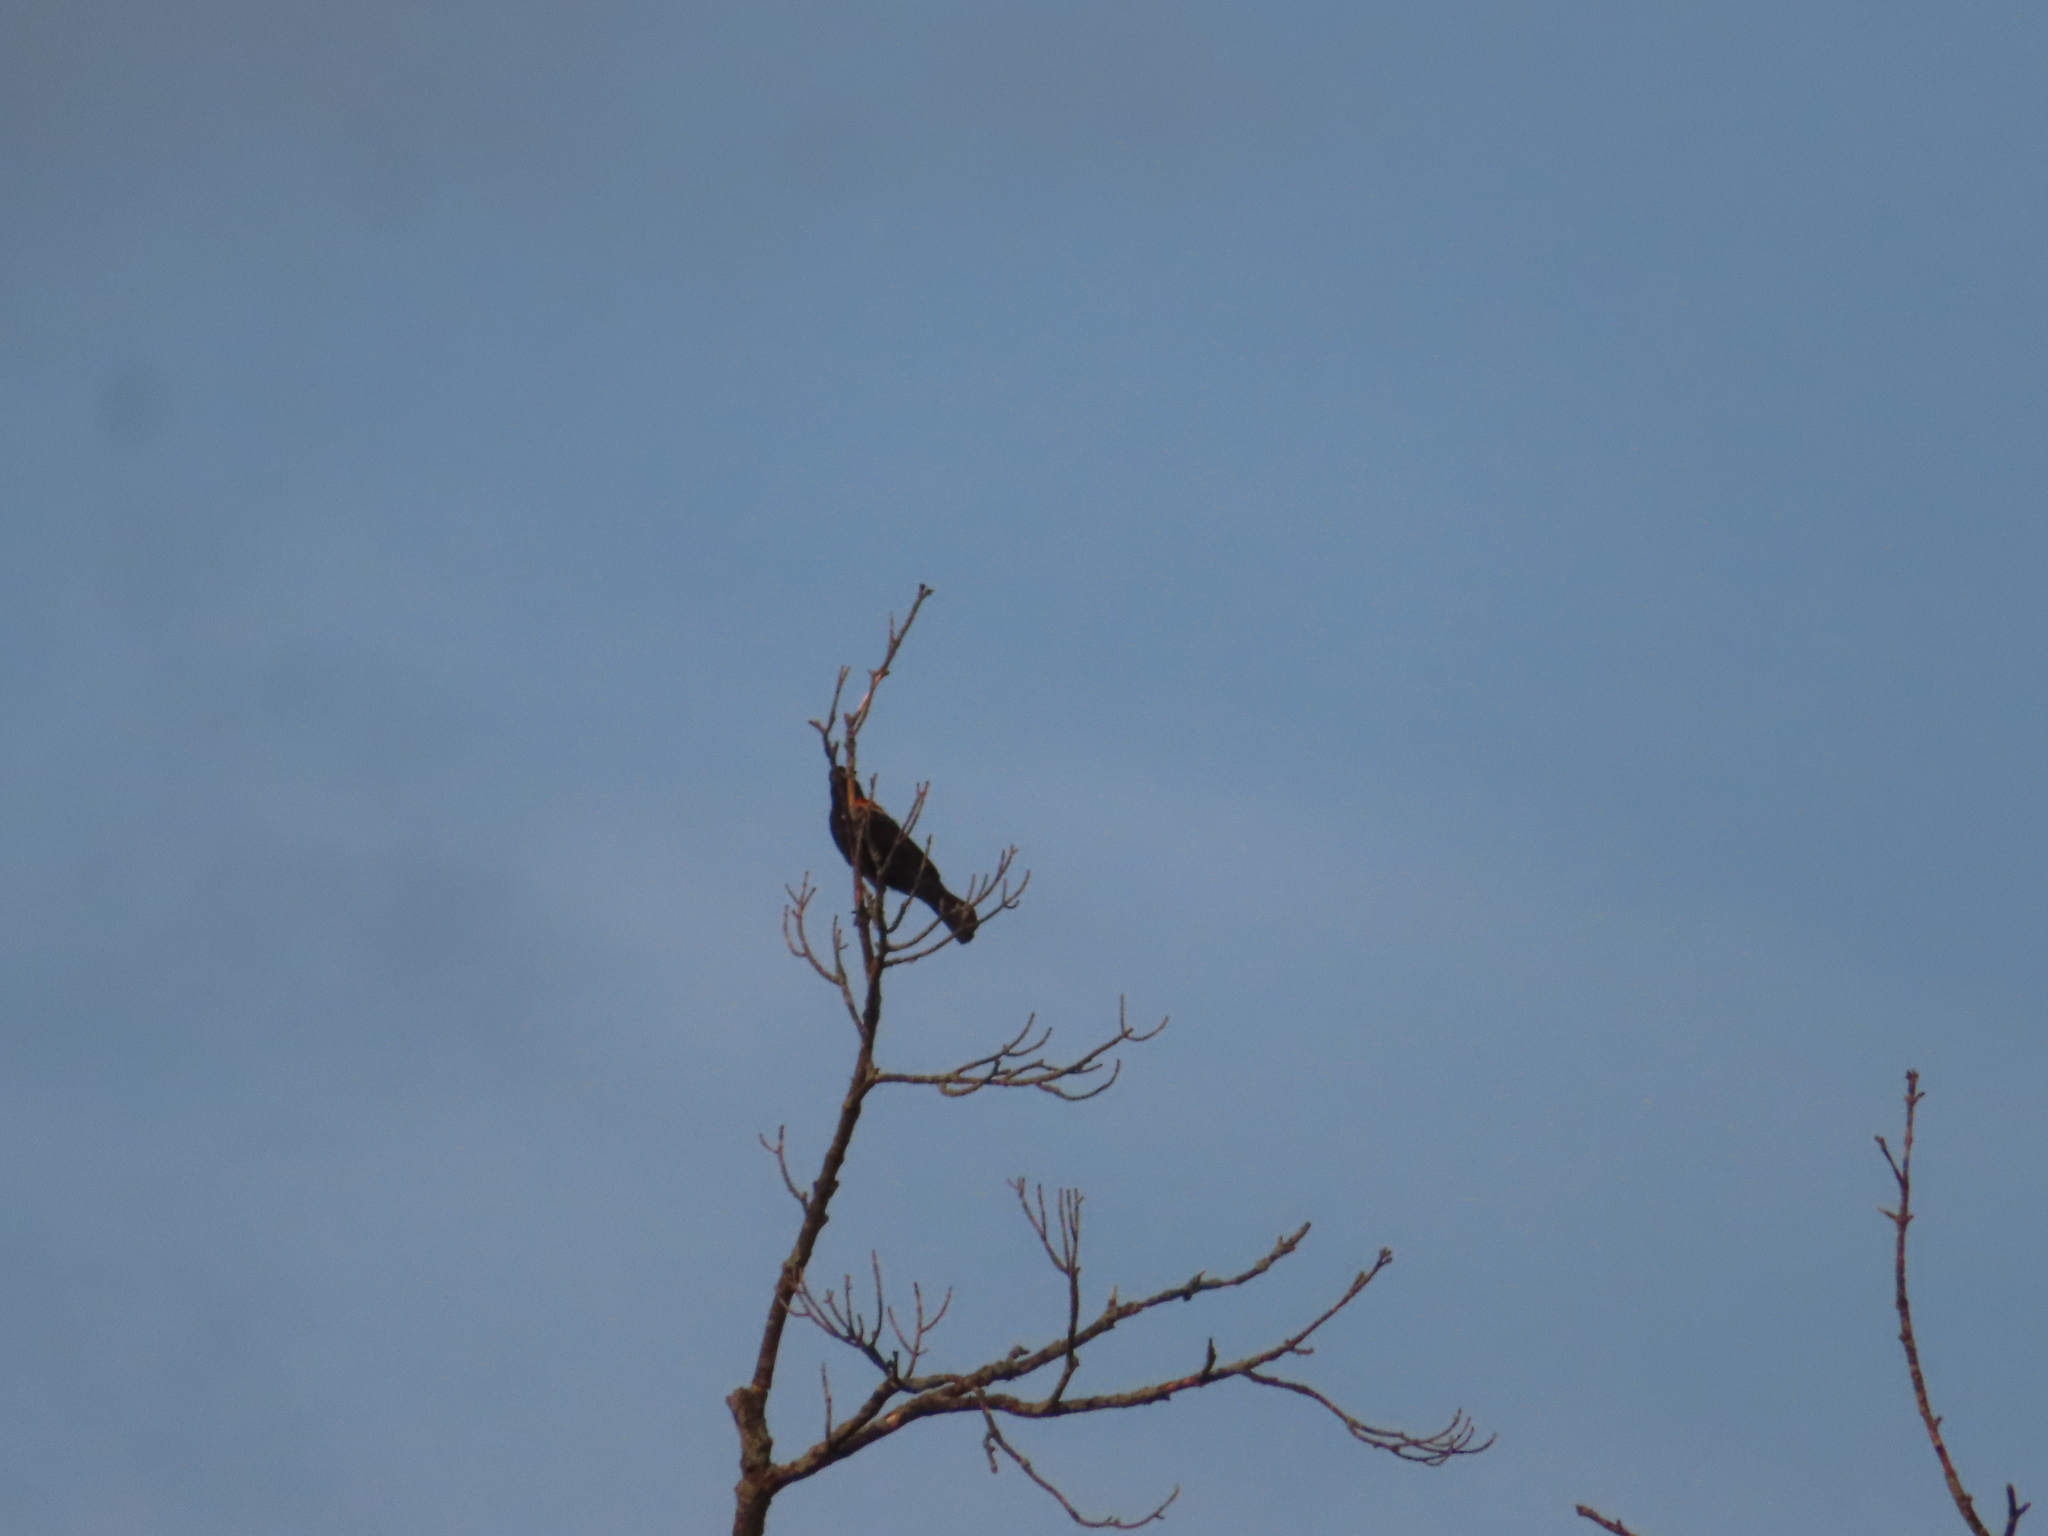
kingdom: Animalia
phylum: Chordata
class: Aves
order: Passeriformes
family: Icteridae
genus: Agelaius
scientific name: Agelaius phoeniceus
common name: Red-winged blackbird
